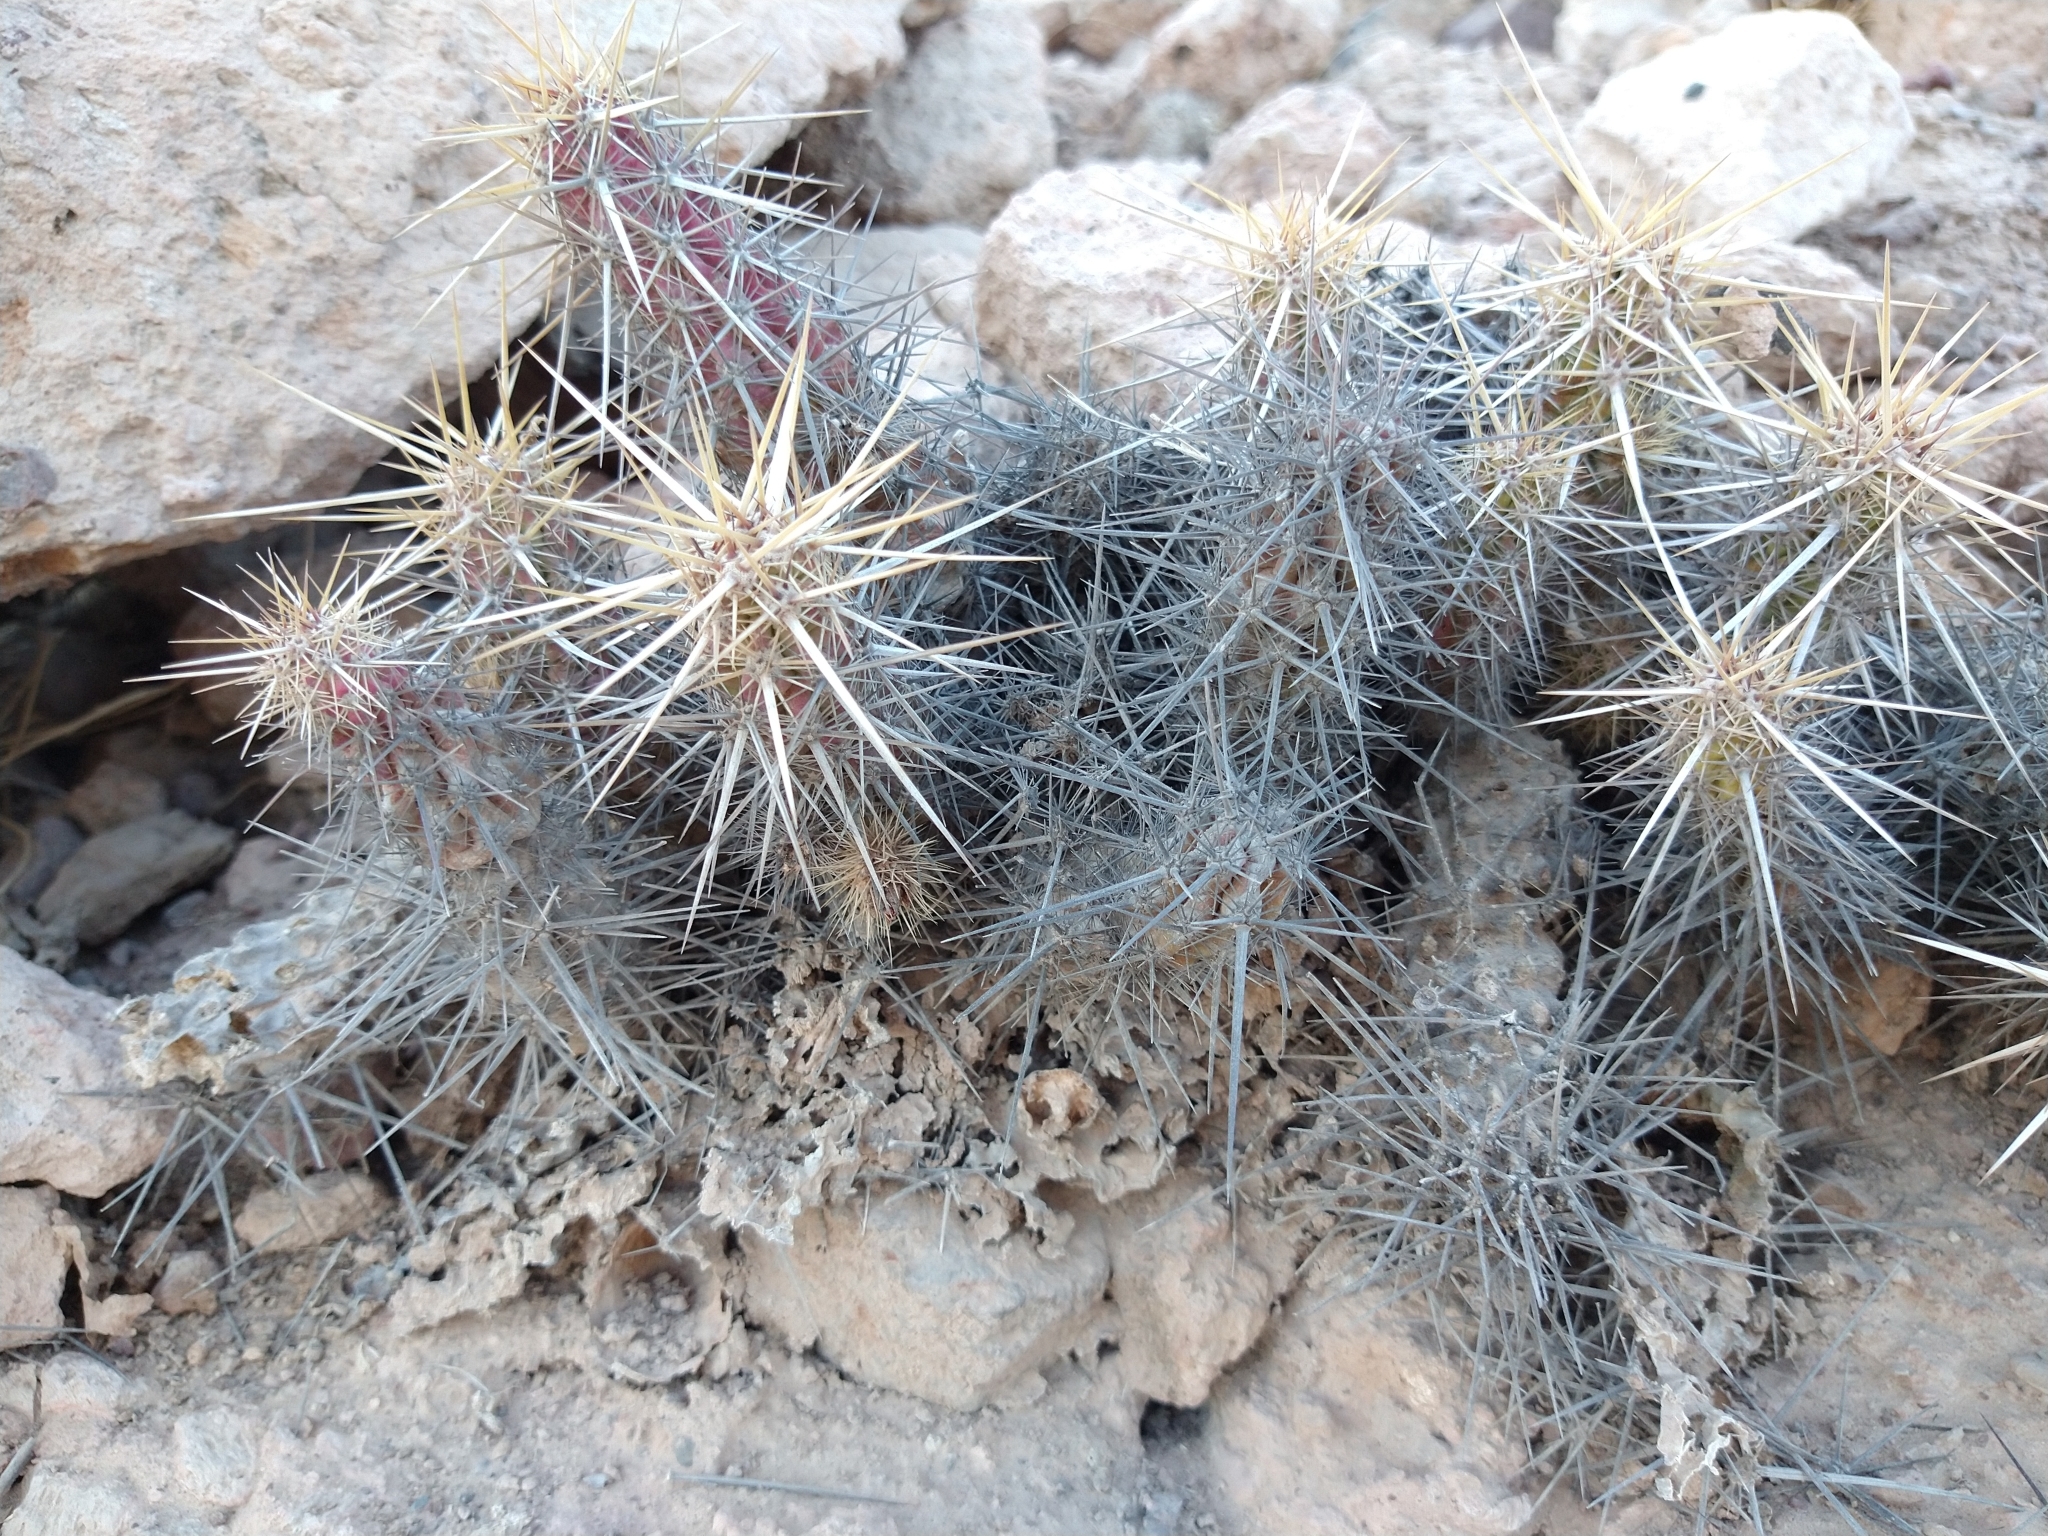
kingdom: Plantae
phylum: Tracheophyta
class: Magnoliopsida
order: Caryophyllales
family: Cactaceae
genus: Echinocereus
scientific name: Echinocereus brandegeei
